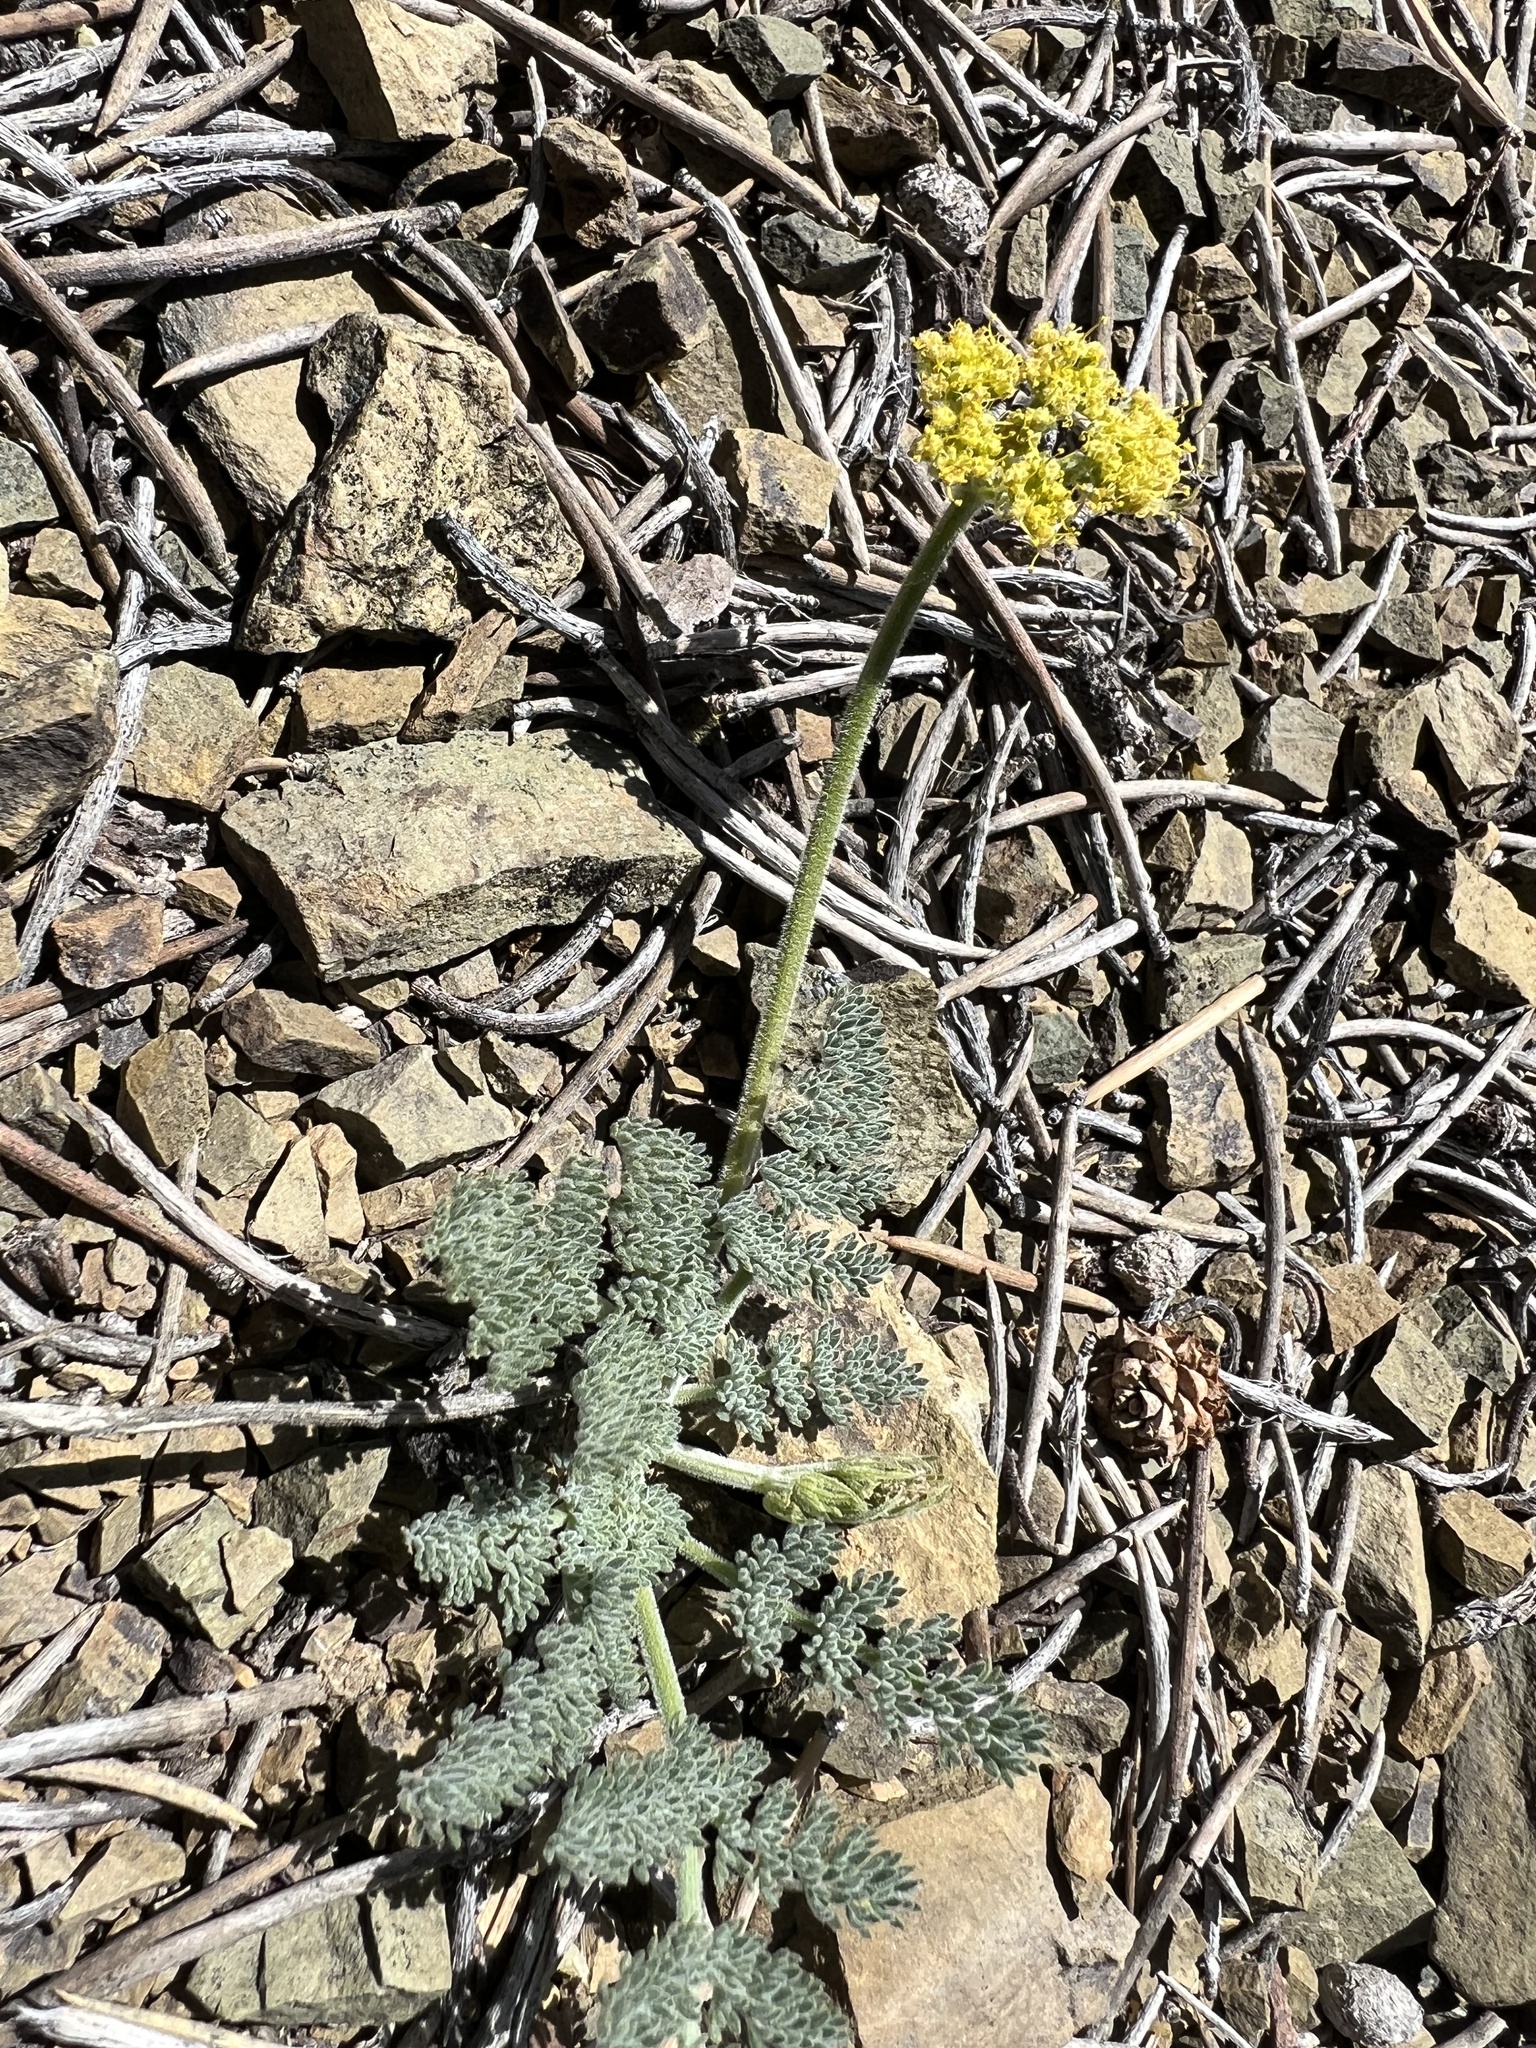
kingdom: Plantae
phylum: Tracheophyta
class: Magnoliopsida
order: Apiales
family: Apiaceae
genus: Lomatium
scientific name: Lomatium foeniculaceum
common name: Desert-parsley
